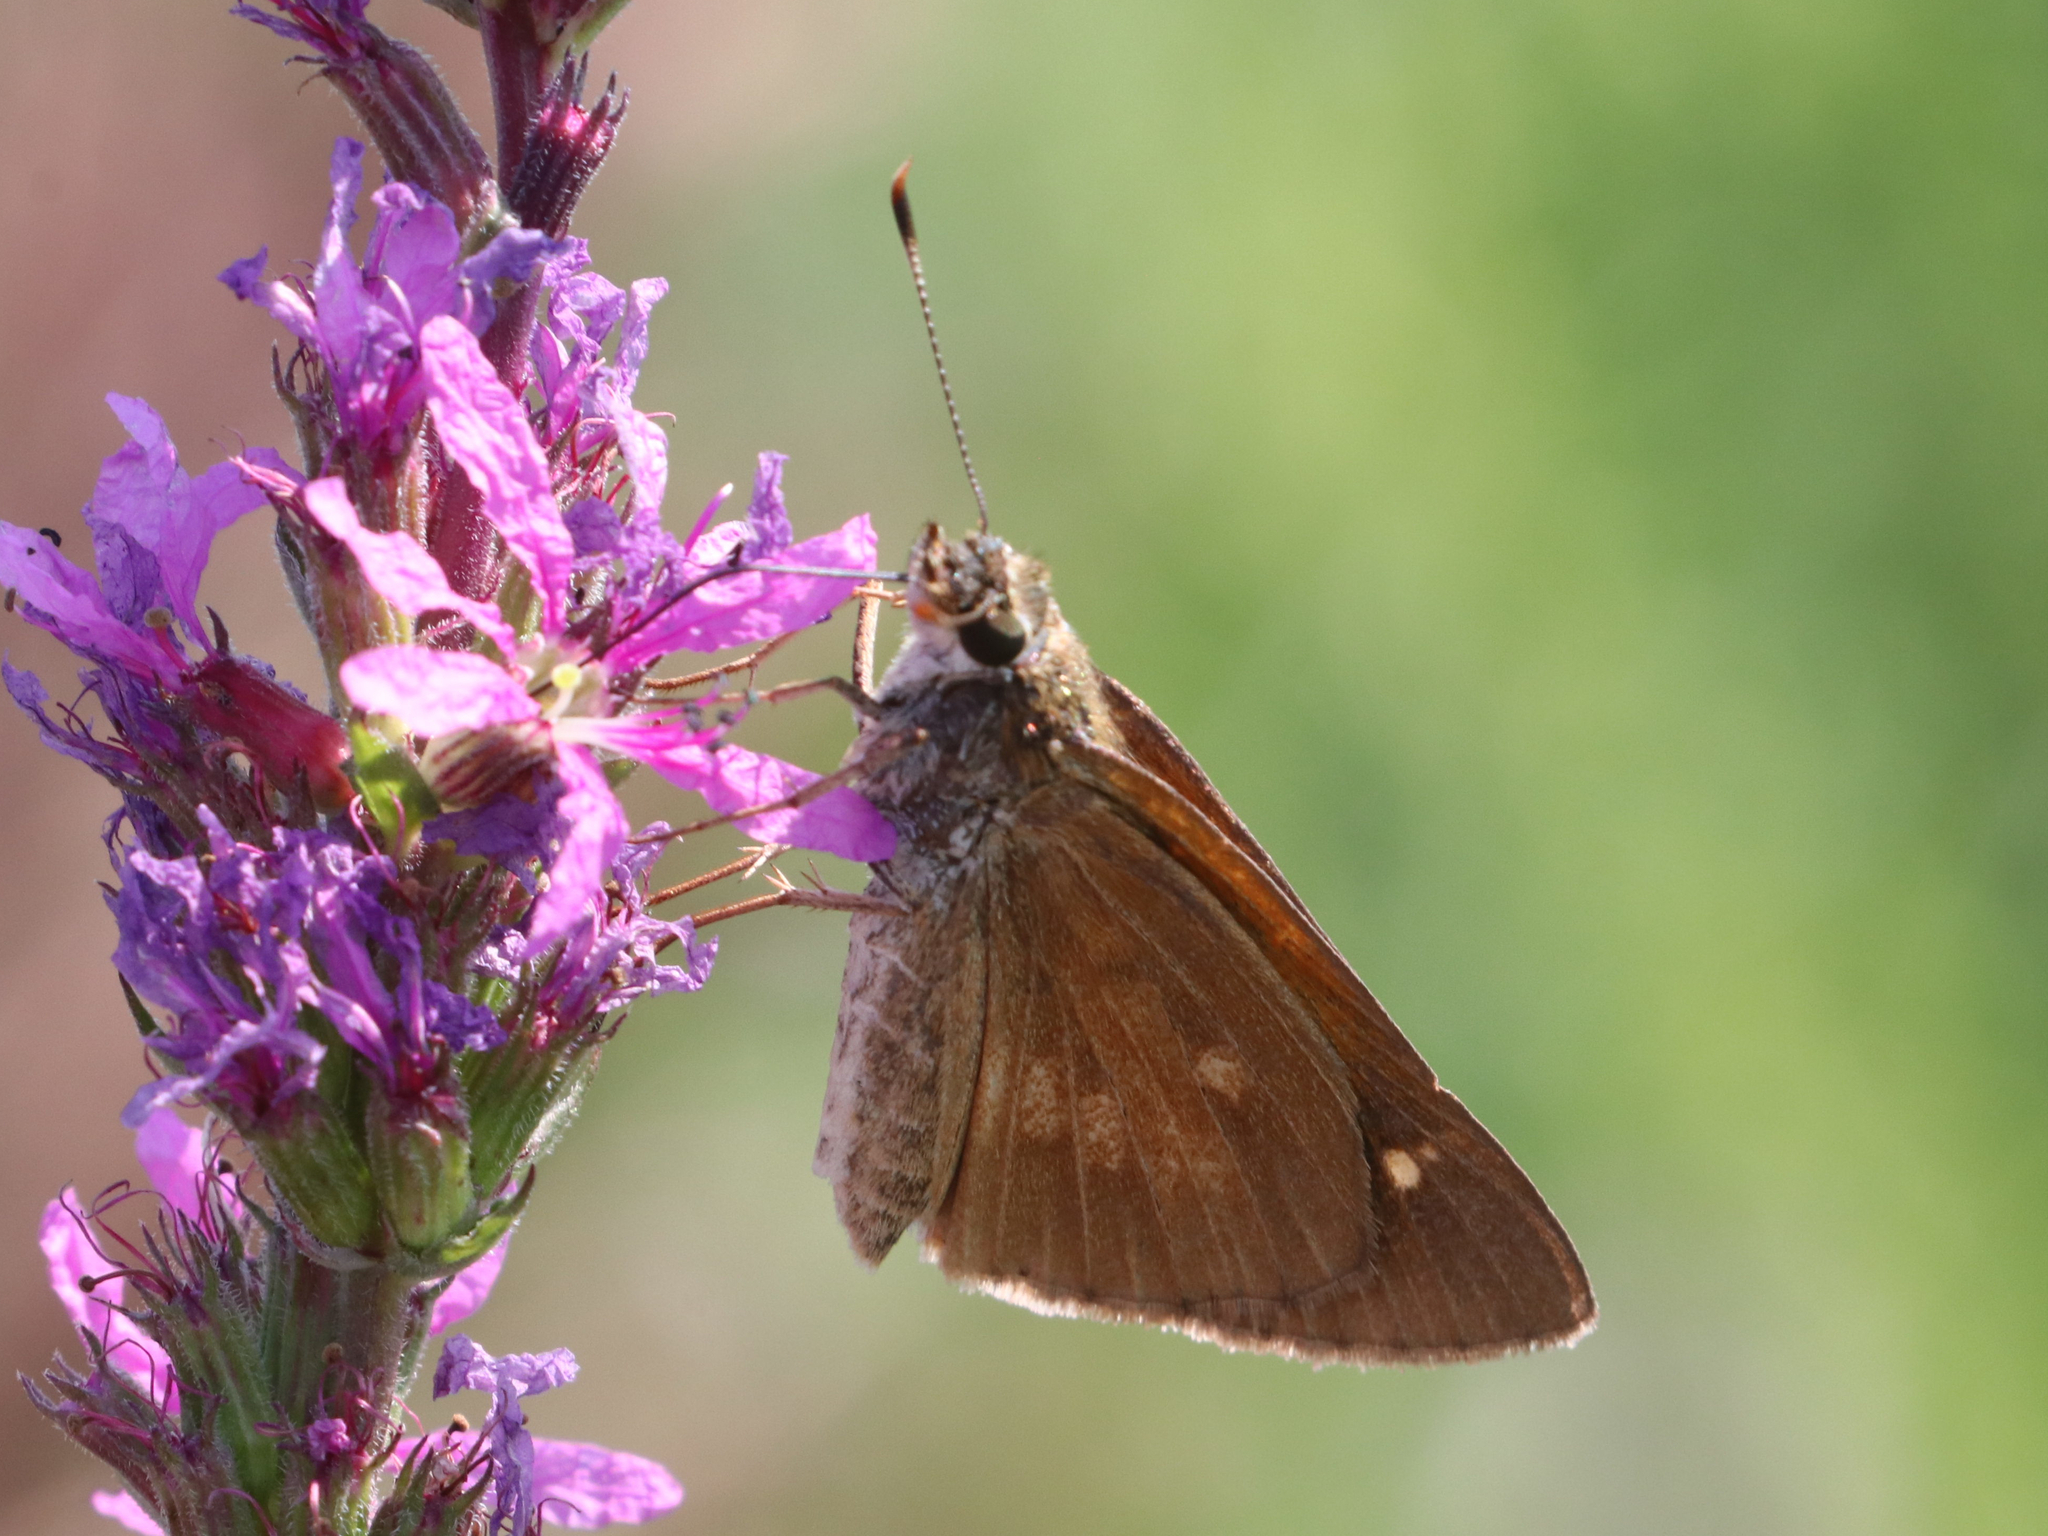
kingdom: Animalia
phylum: Arthropoda
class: Insecta
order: Lepidoptera
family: Hesperiidae
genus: Poanes
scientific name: Poanes viator
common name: Broad-winged skipper
